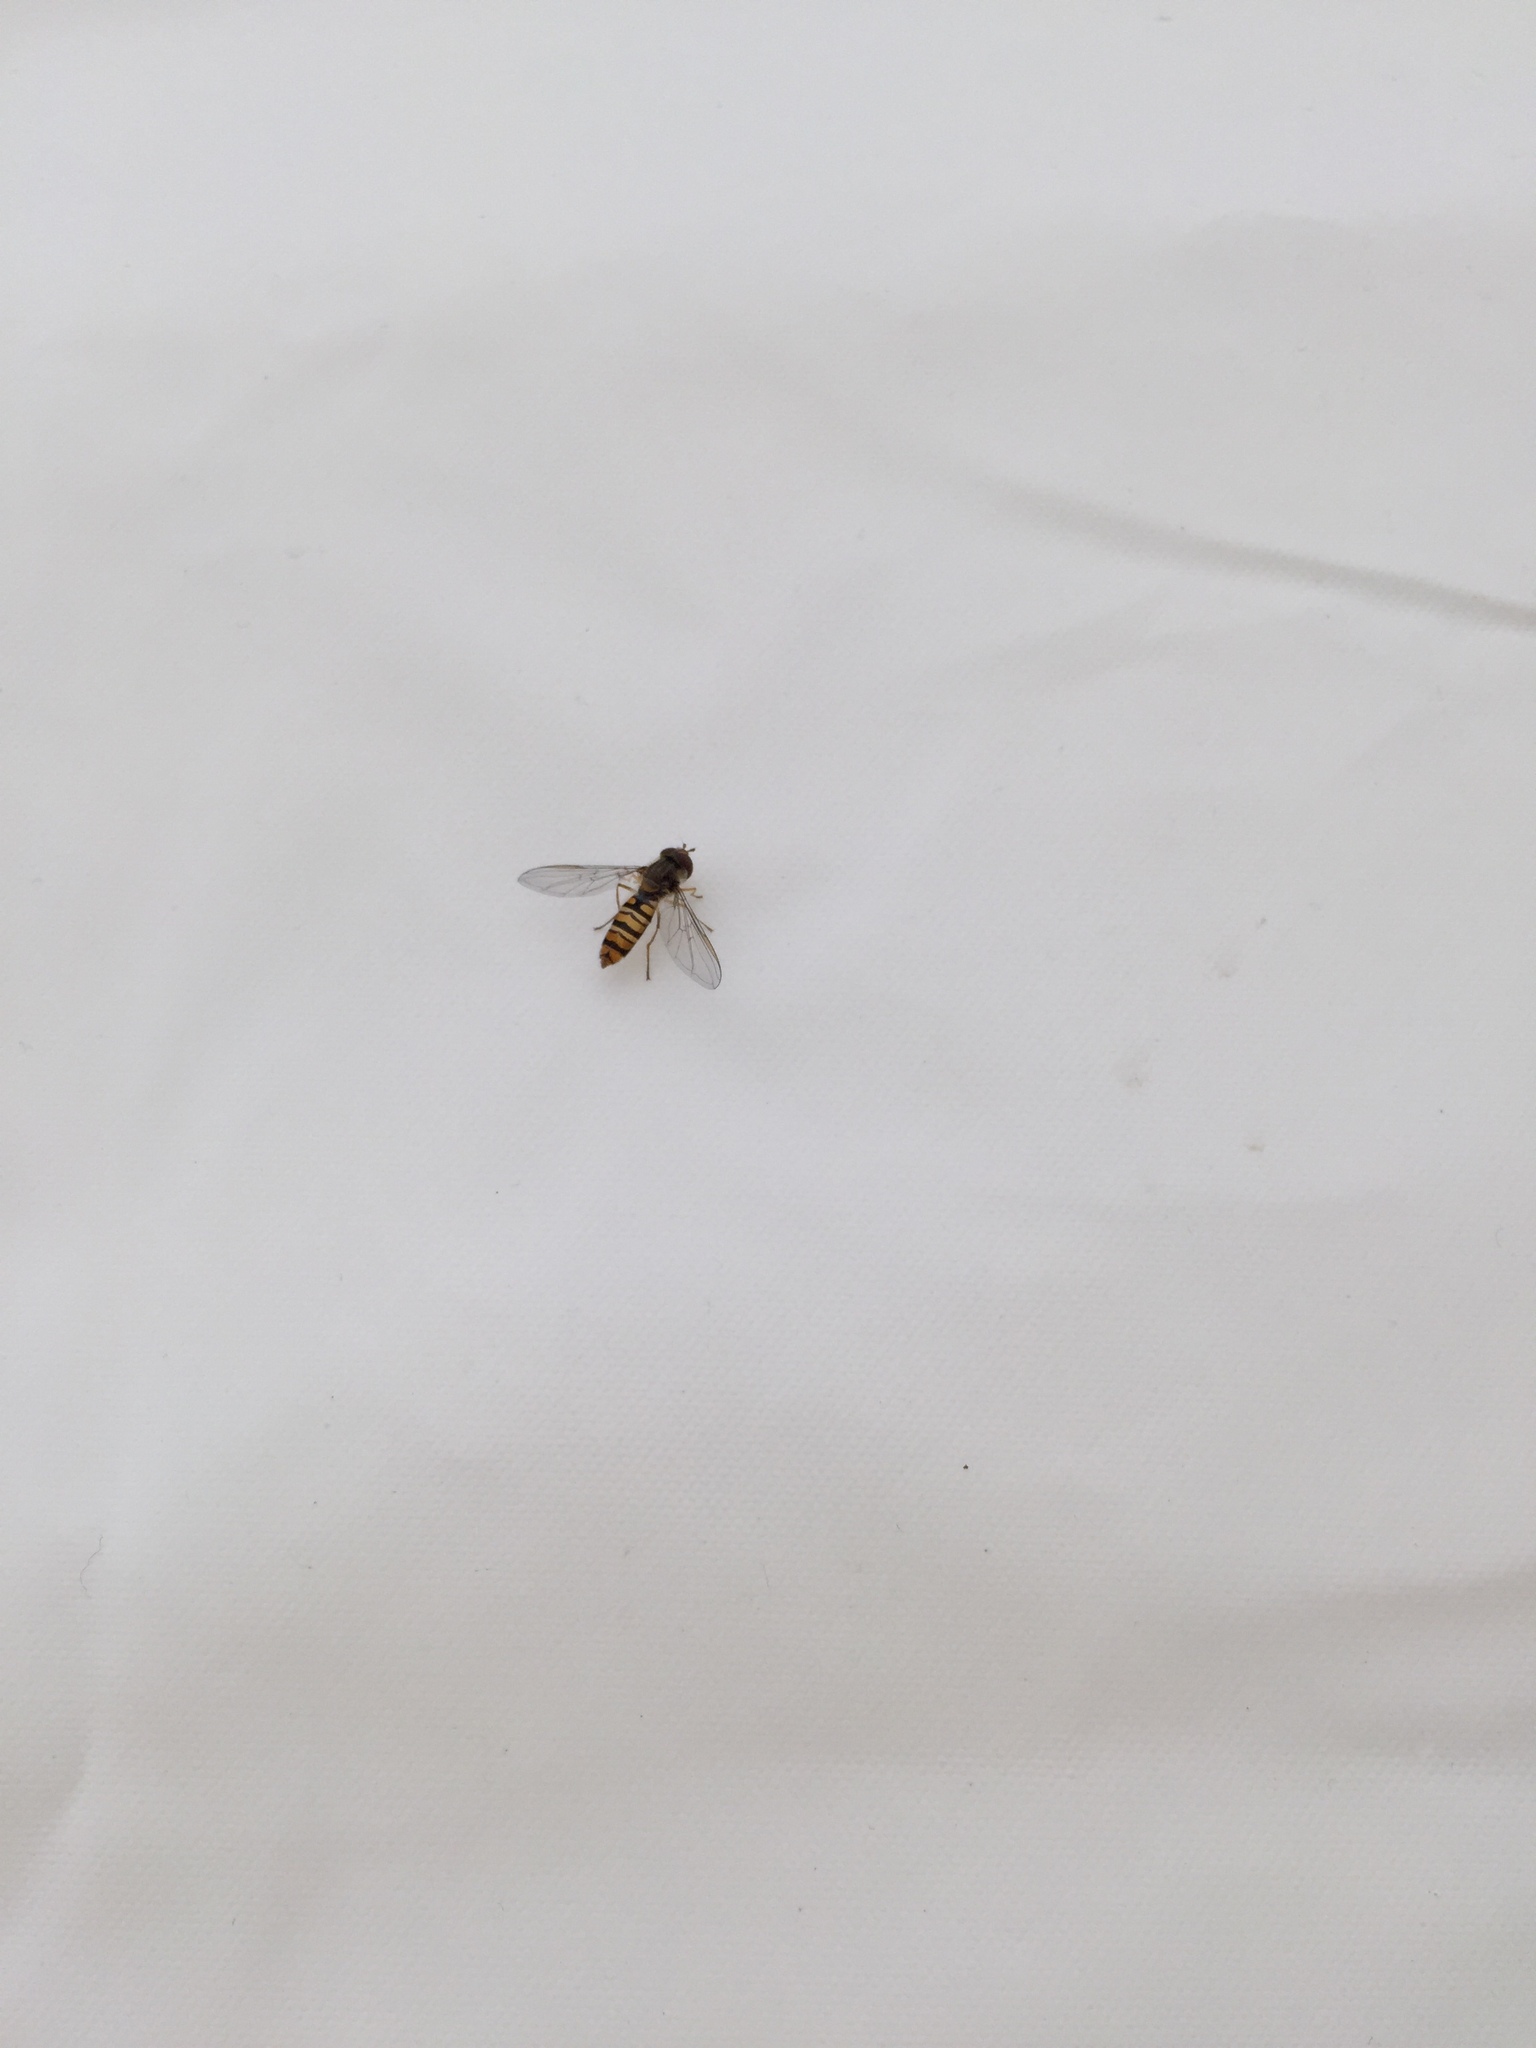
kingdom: Animalia
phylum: Arthropoda
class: Insecta
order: Diptera
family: Syrphidae
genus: Episyrphus
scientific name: Episyrphus balteatus
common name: Marmalade hoverfly
